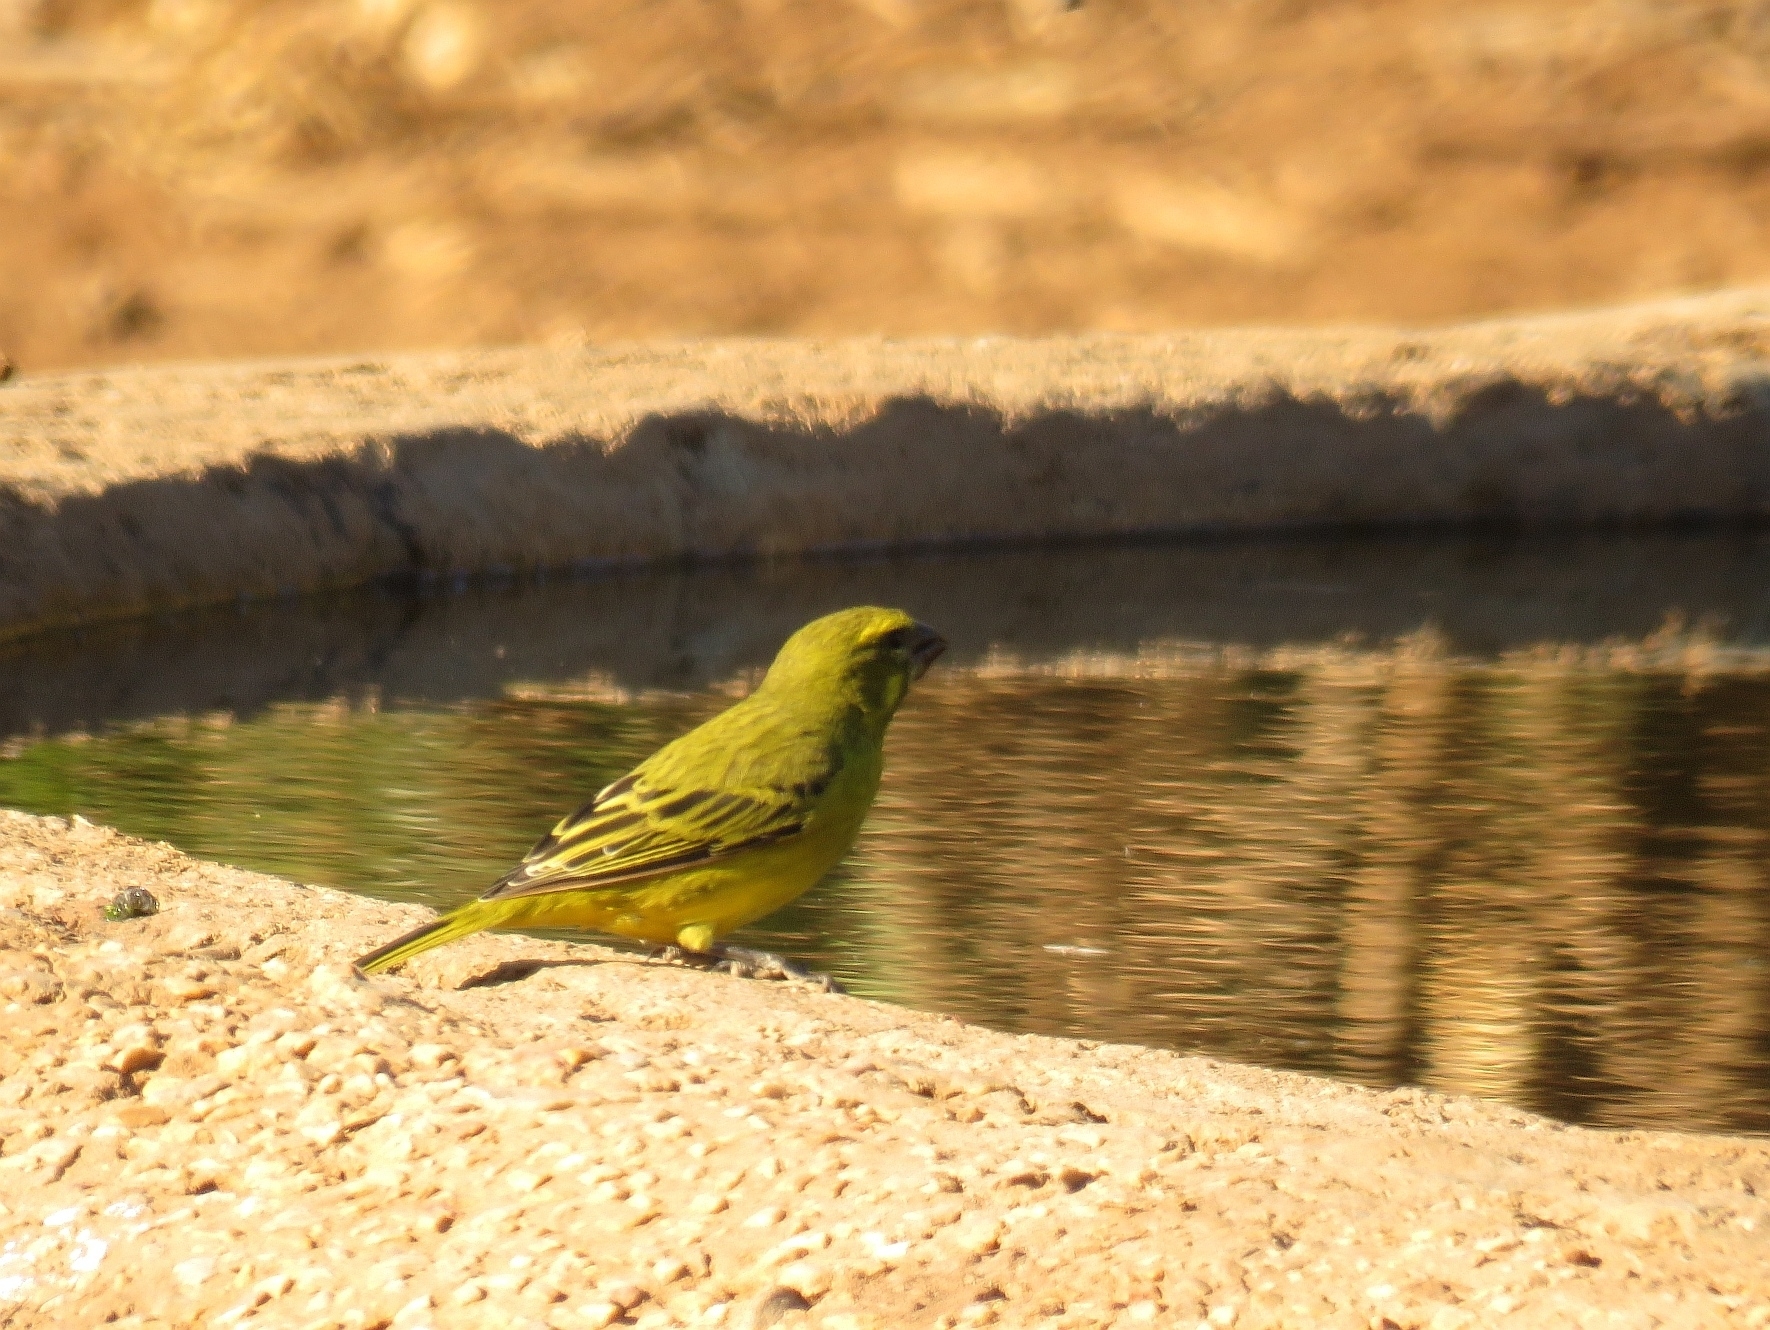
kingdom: Animalia
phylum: Chordata
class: Aves
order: Passeriformes
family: Fringillidae
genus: Crithagra
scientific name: Crithagra sulphurata
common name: Brimstone canary
